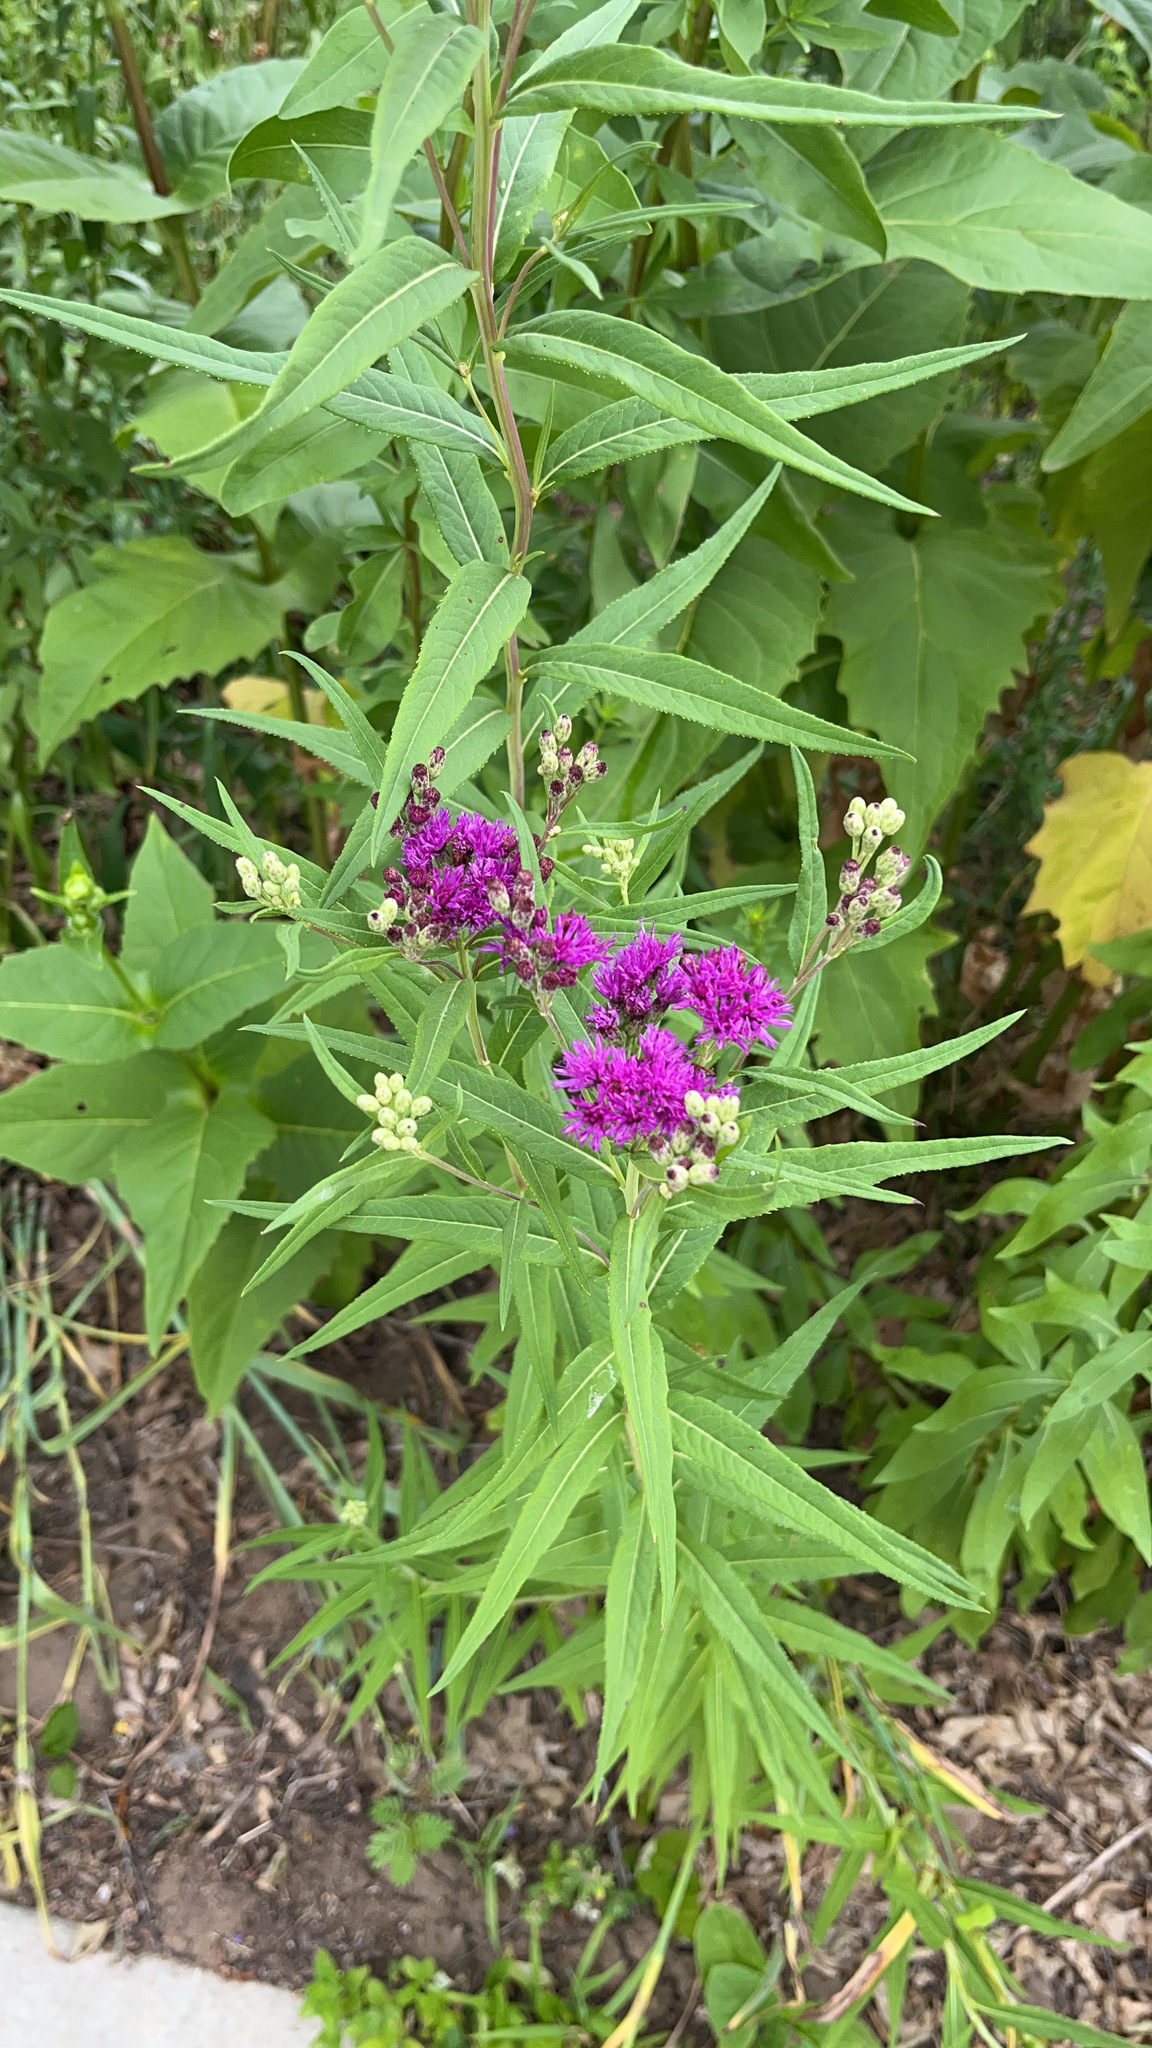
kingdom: Plantae
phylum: Tracheophyta
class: Magnoliopsida
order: Asterales
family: Asteraceae
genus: Vernonia
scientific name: Vernonia fasciculata
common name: Fascicled ironweed
